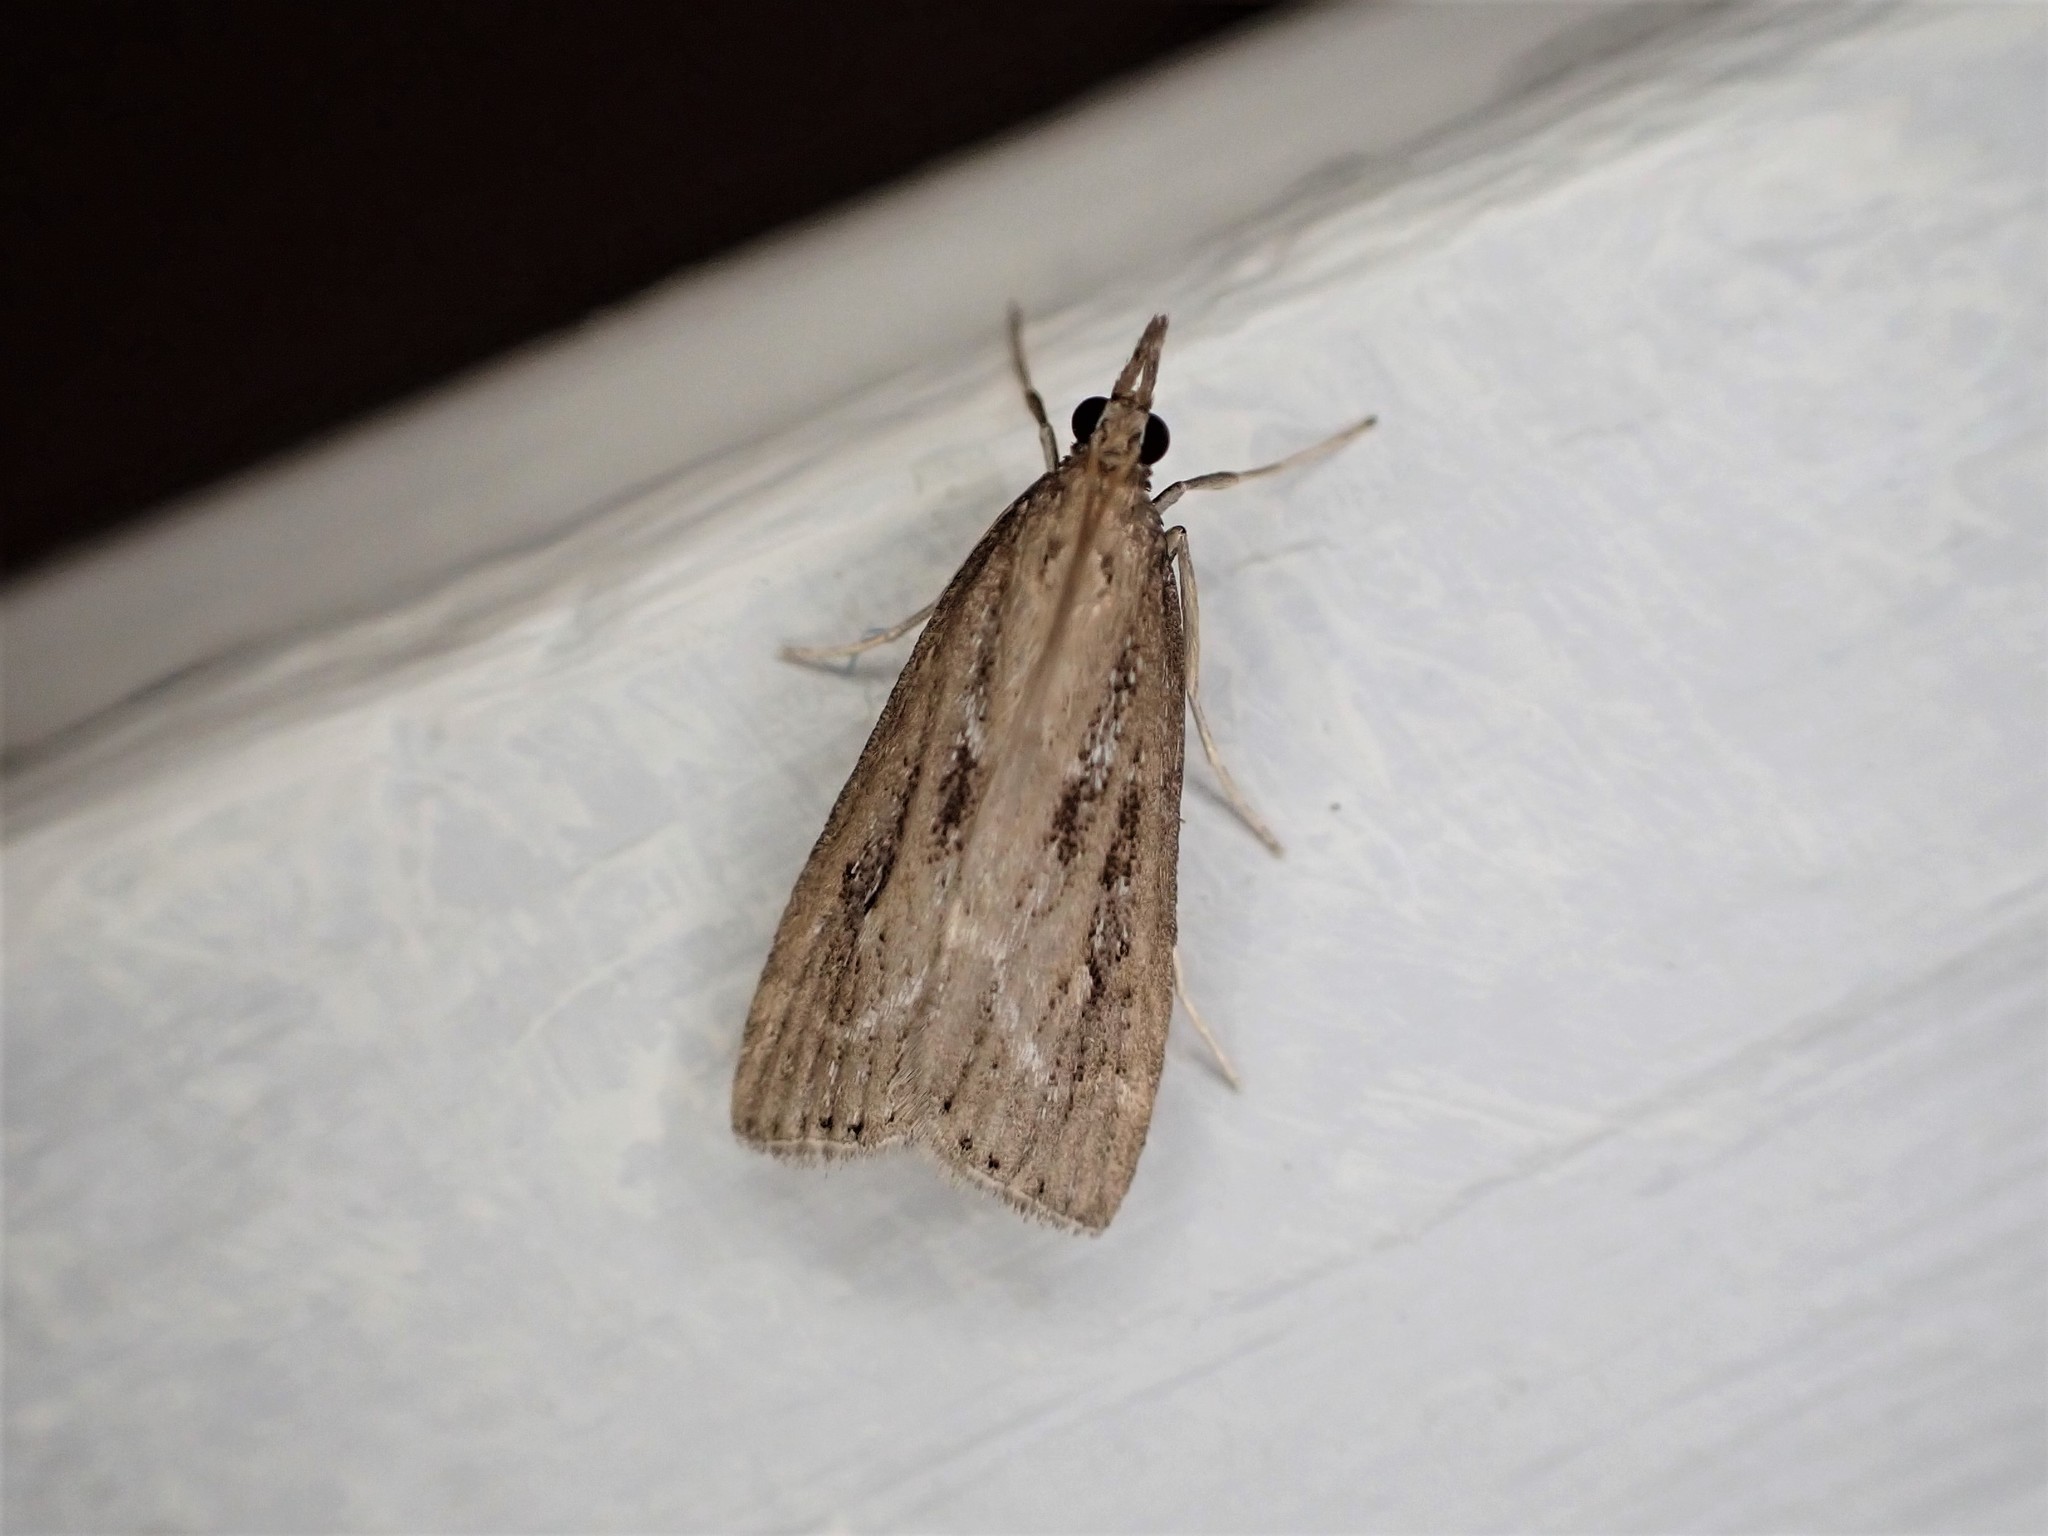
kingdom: Animalia
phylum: Arthropoda
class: Insecta
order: Lepidoptera
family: Crambidae
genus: Eudonia
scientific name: Eudonia octophora
